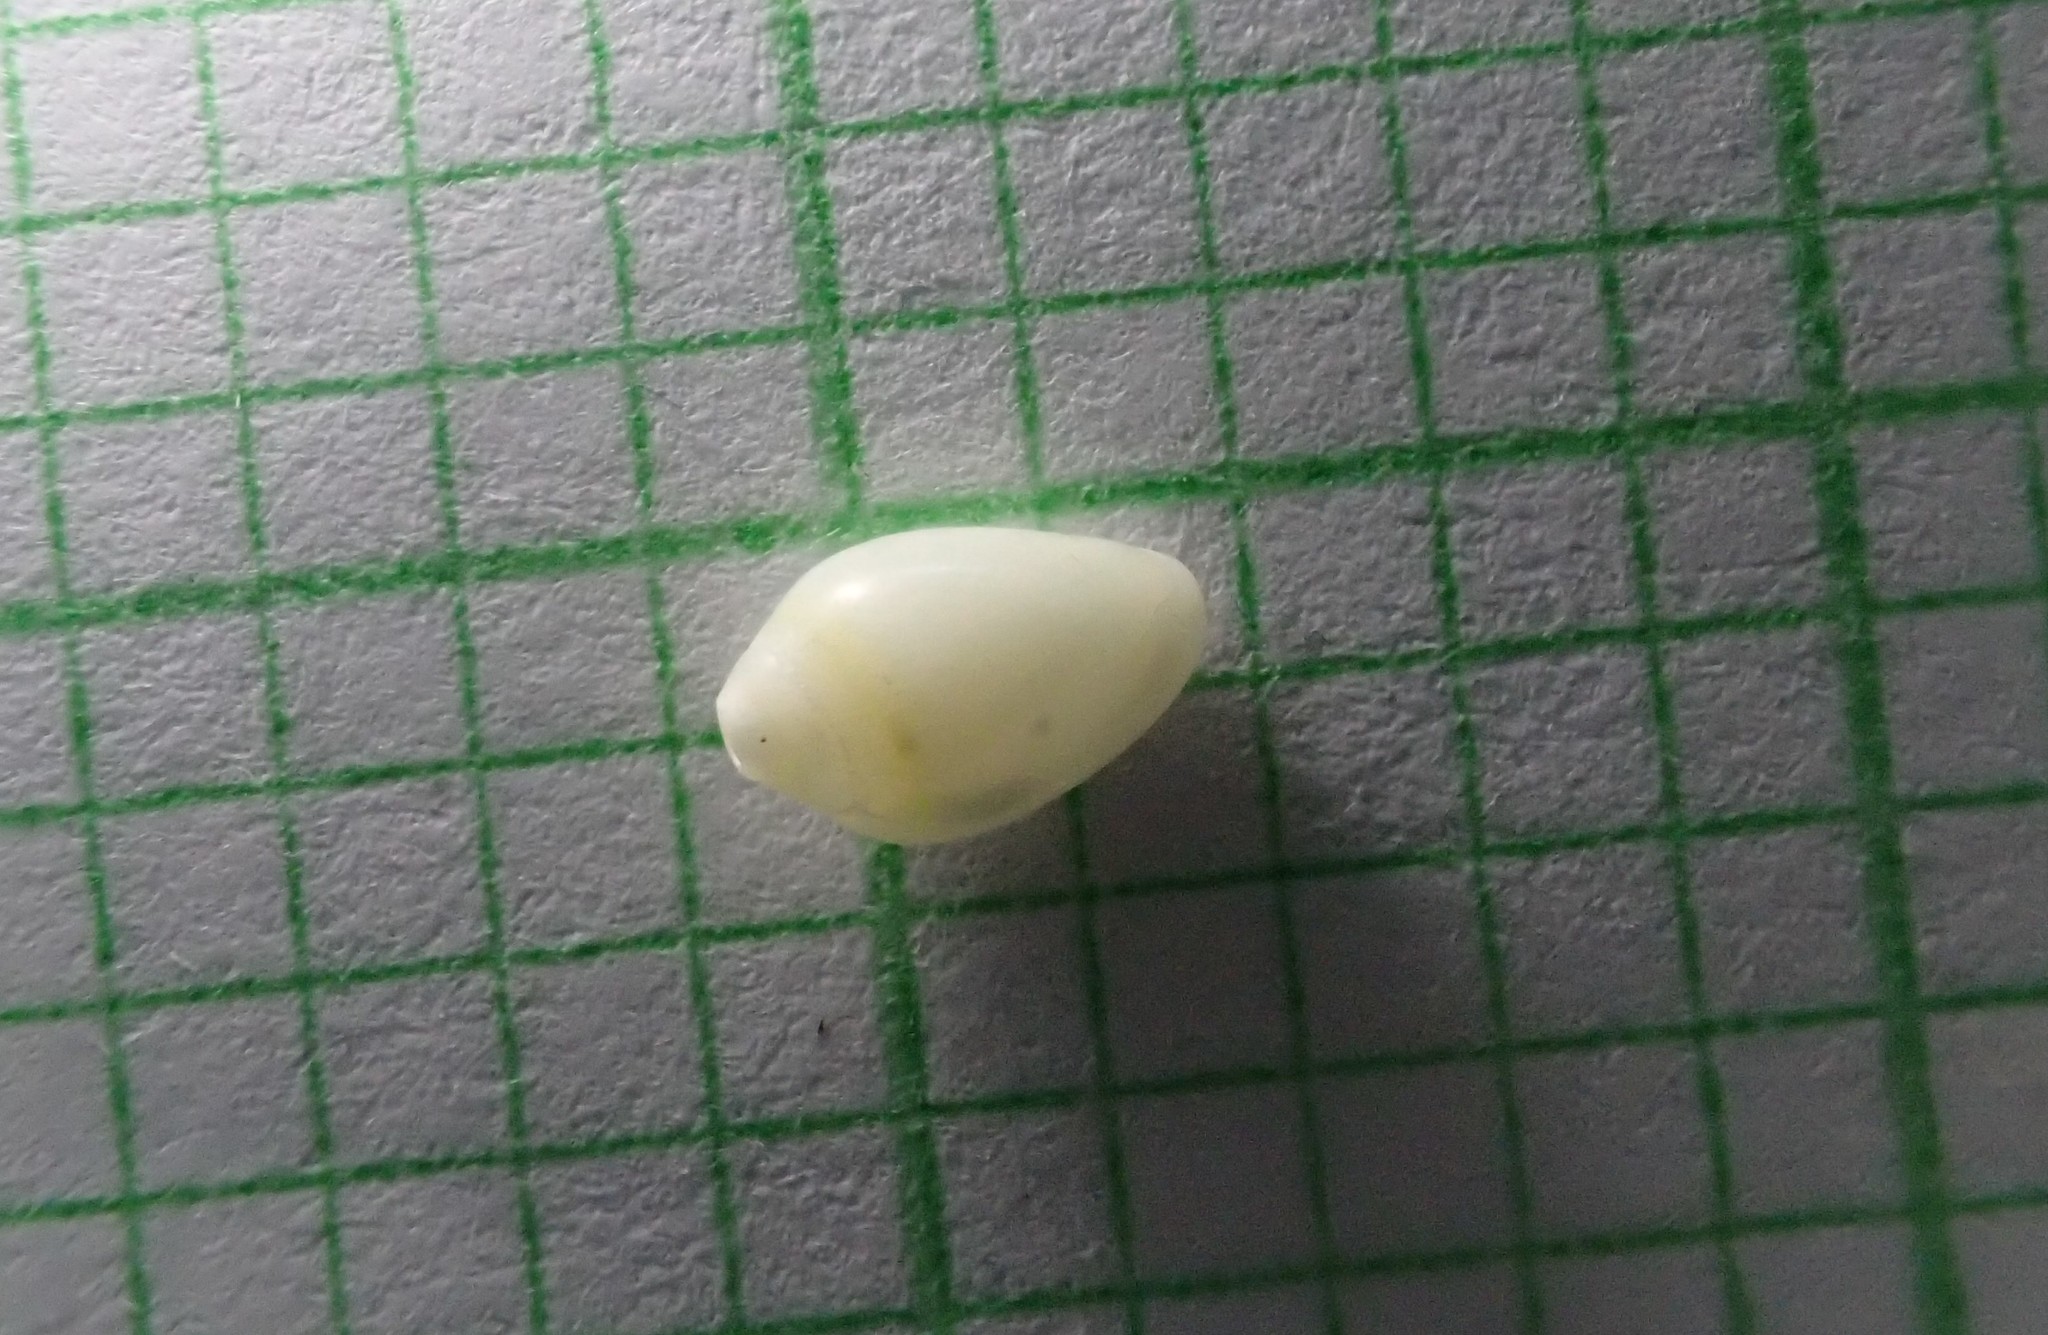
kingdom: Animalia
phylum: Mollusca
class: Gastropoda
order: Neogastropoda
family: Marginellidae
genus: Mesoginella
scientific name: Mesoginella koma
